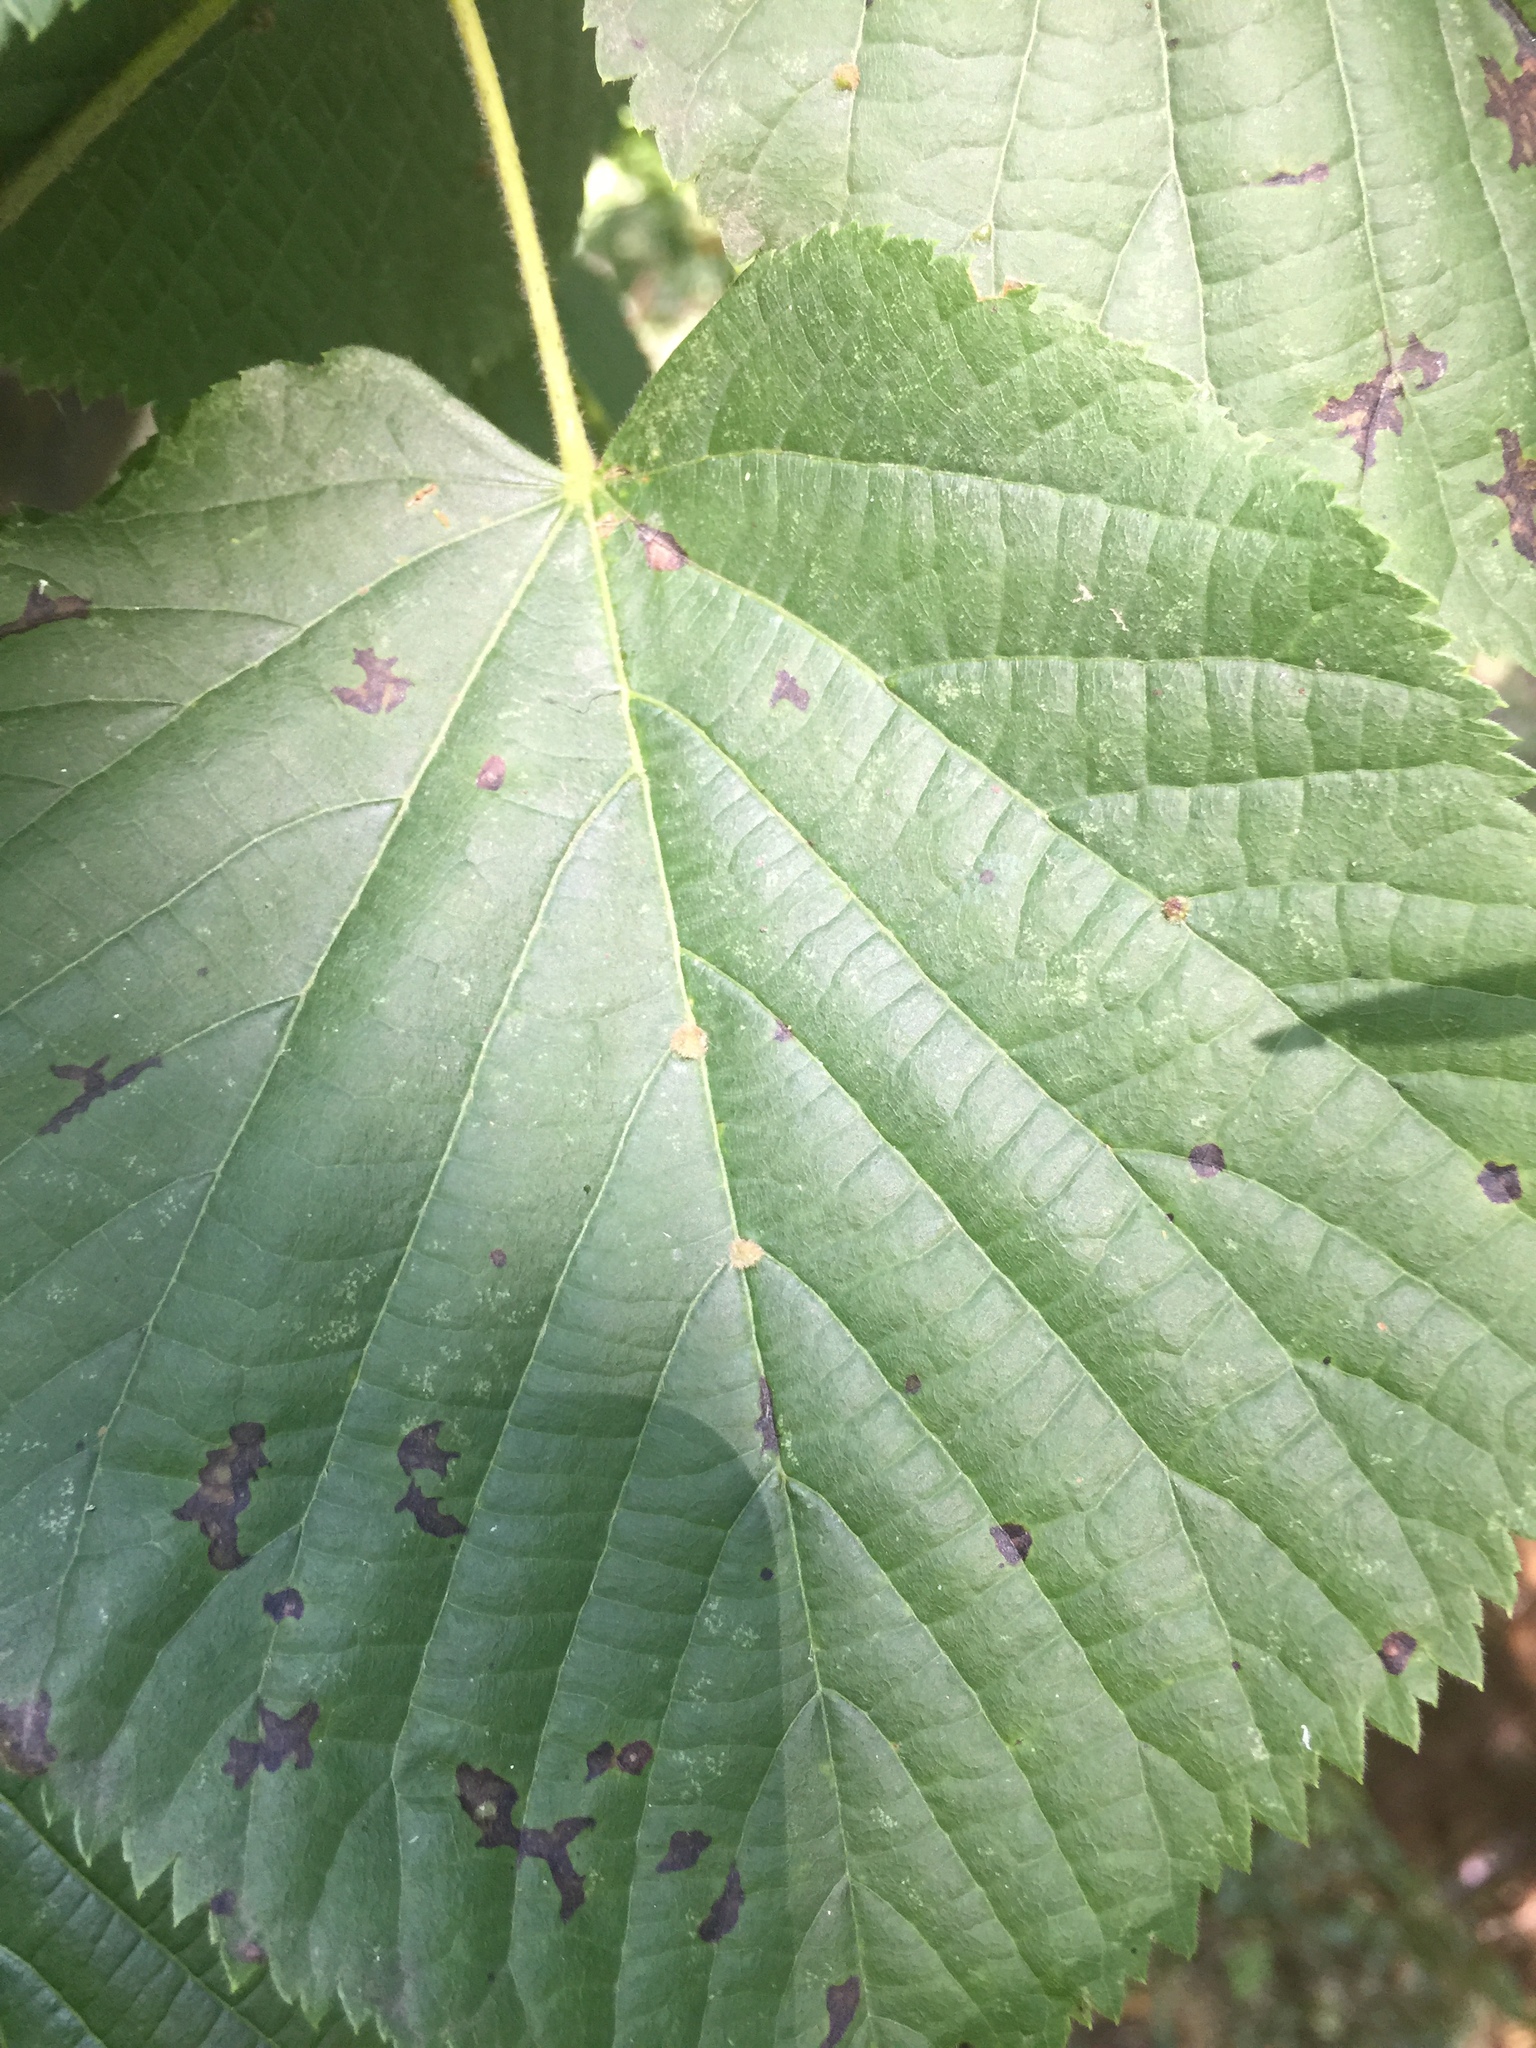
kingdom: Animalia
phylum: Arthropoda
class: Arachnida
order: Trombidiformes
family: Eriophyidae
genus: Eriophyes
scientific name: Eriophyes exilis
